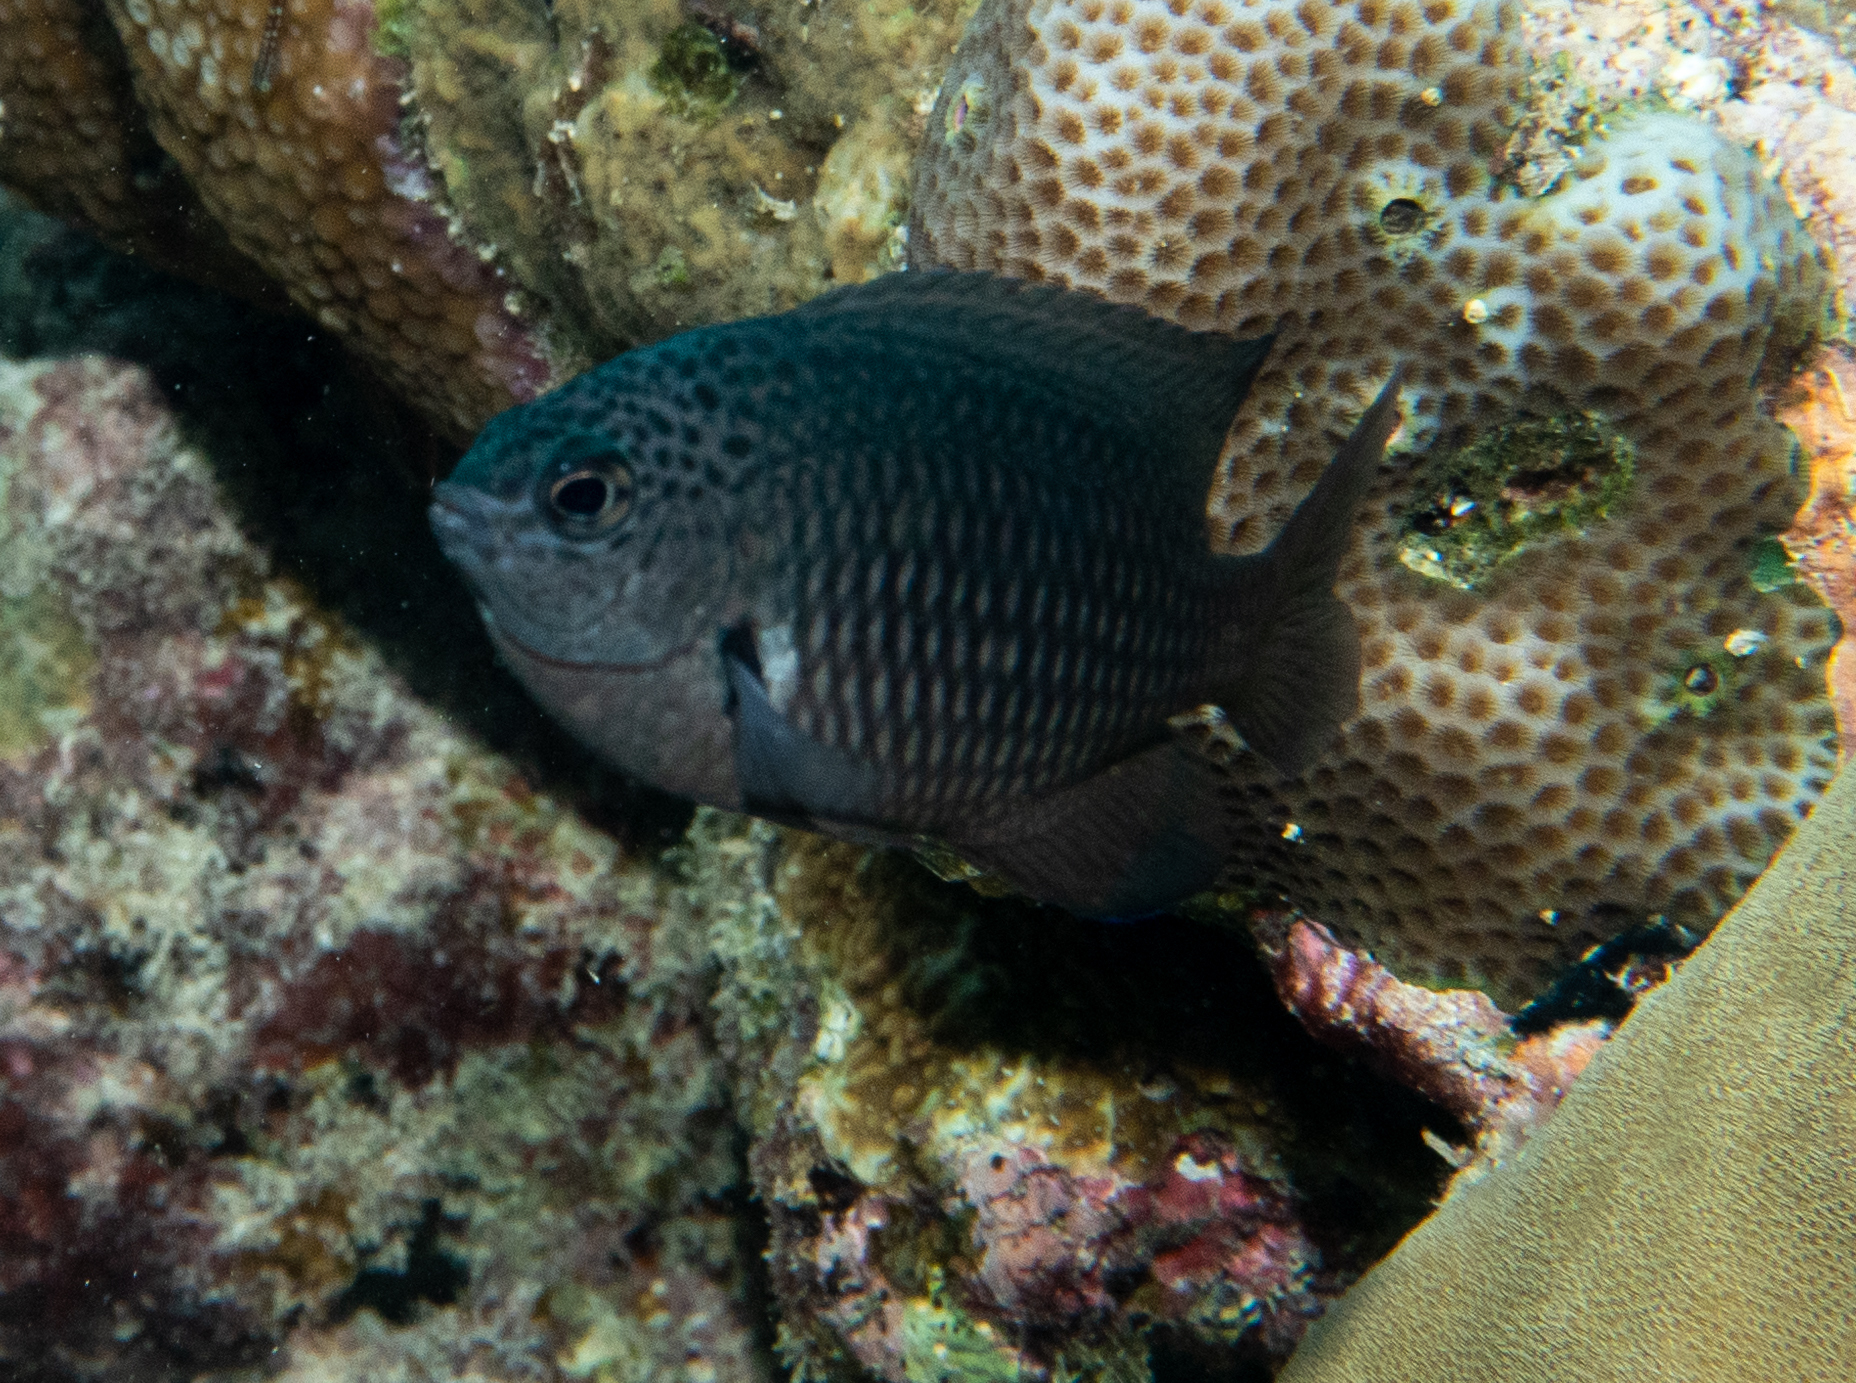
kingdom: Animalia
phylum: Chordata
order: Perciformes
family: Pomacentridae
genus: Pomacentrus
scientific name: Pomacentrus indicus
